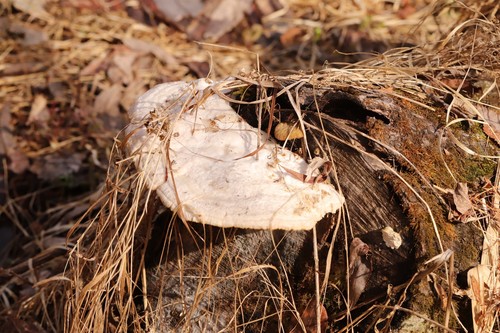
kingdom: Fungi
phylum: Basidiomycota
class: Agaricomycetes
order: Polyporales
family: Polyporaceae
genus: Trametes
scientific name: Trametes suaveolens
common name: Fragrant bracket
